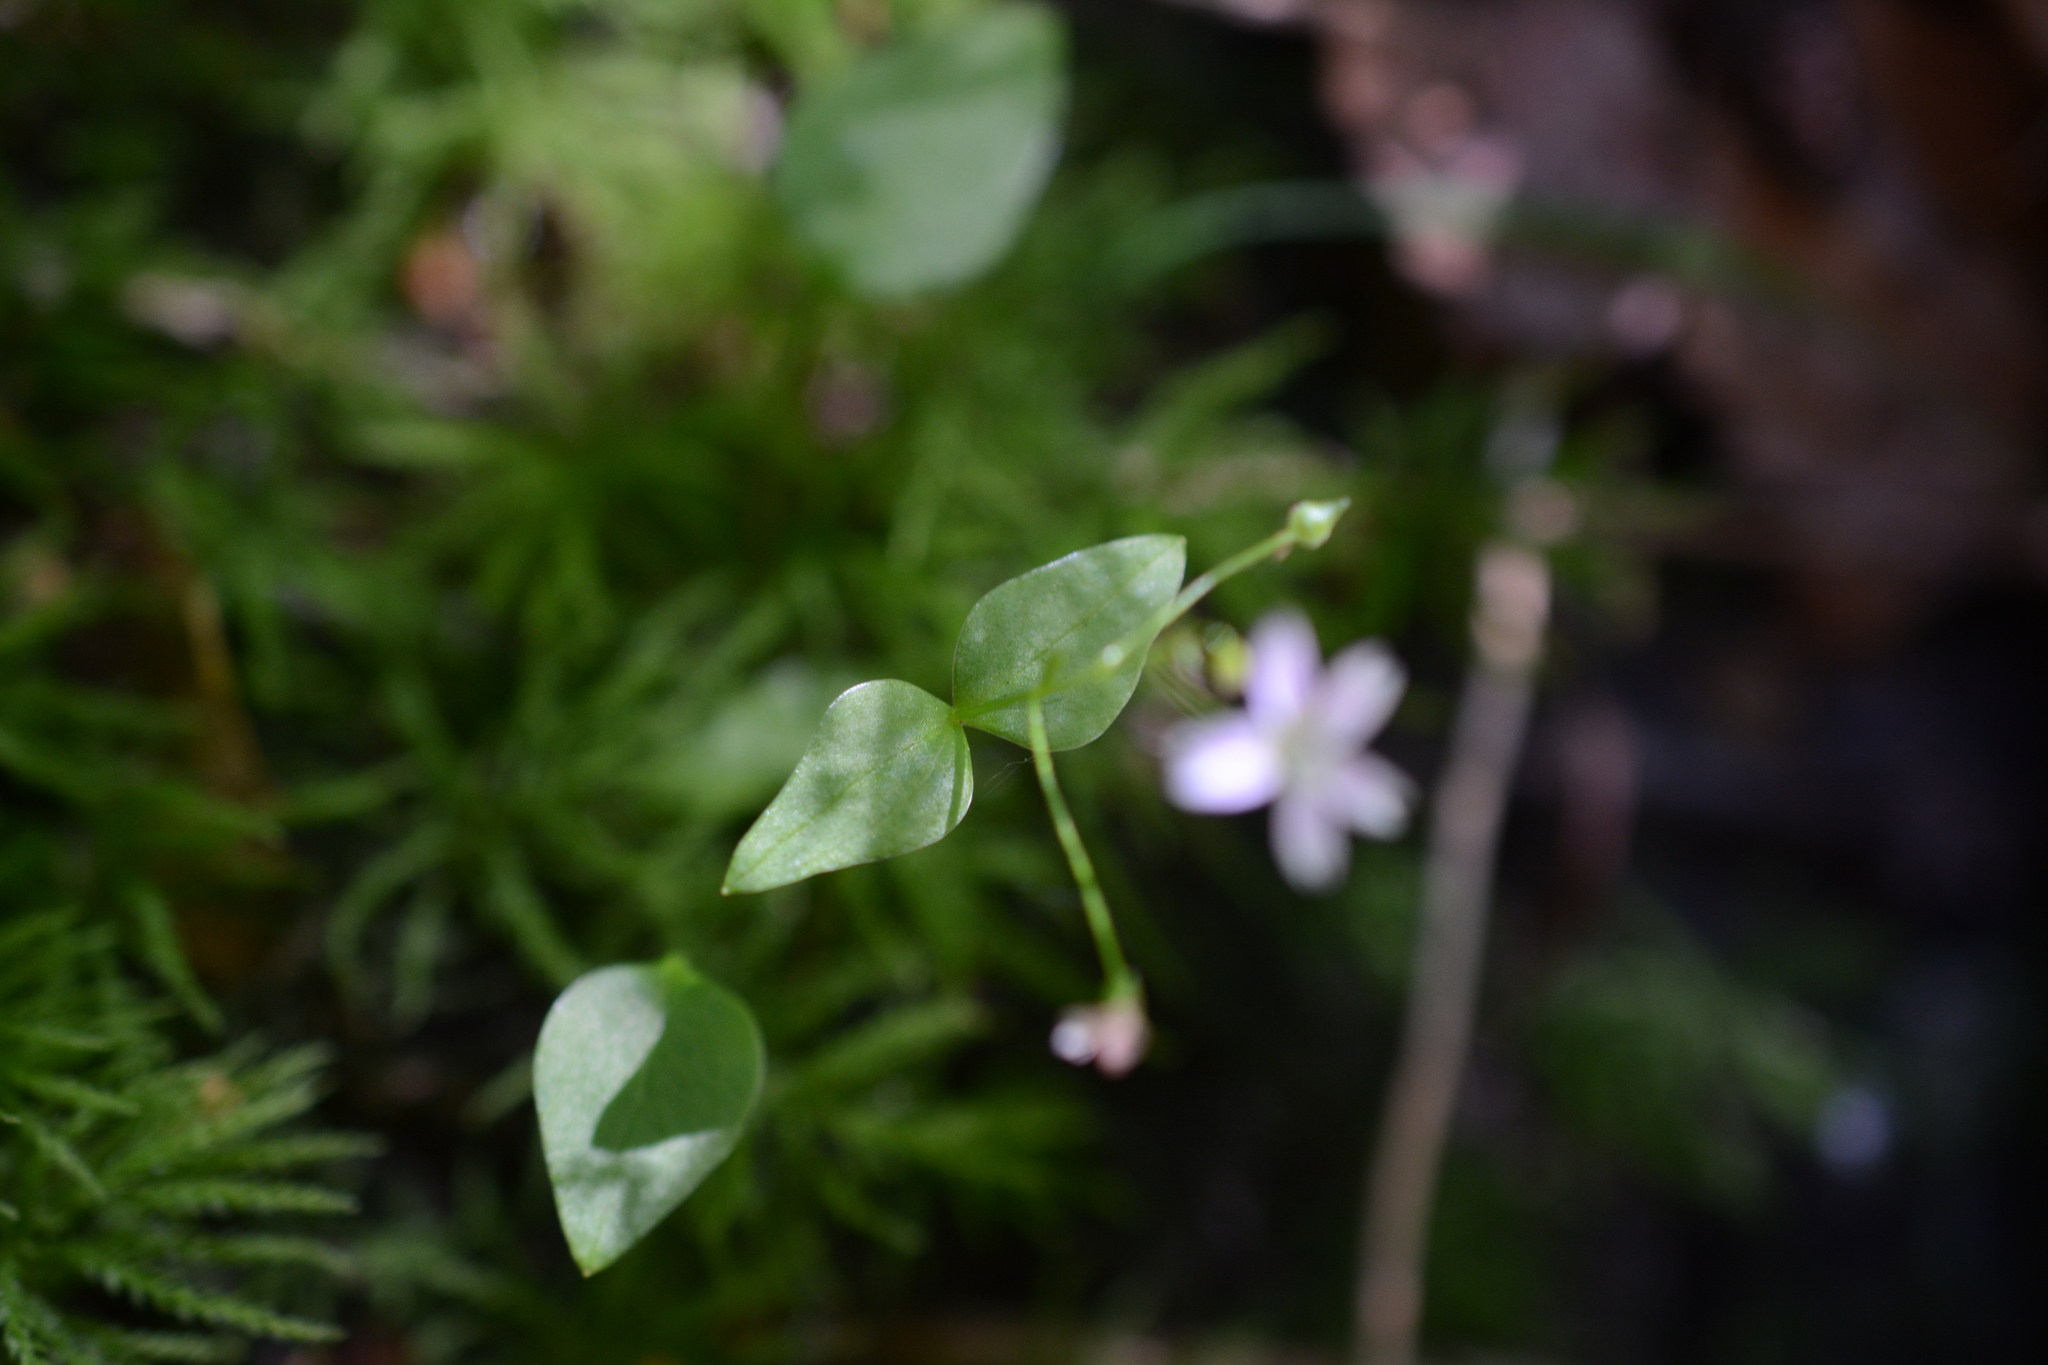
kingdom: Plantae
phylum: Tracheophyta
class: Magnoliopsida
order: Caryophyllales
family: Montiaceae
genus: Claytonia
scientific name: Claytonia sibirica
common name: Pink purslane
